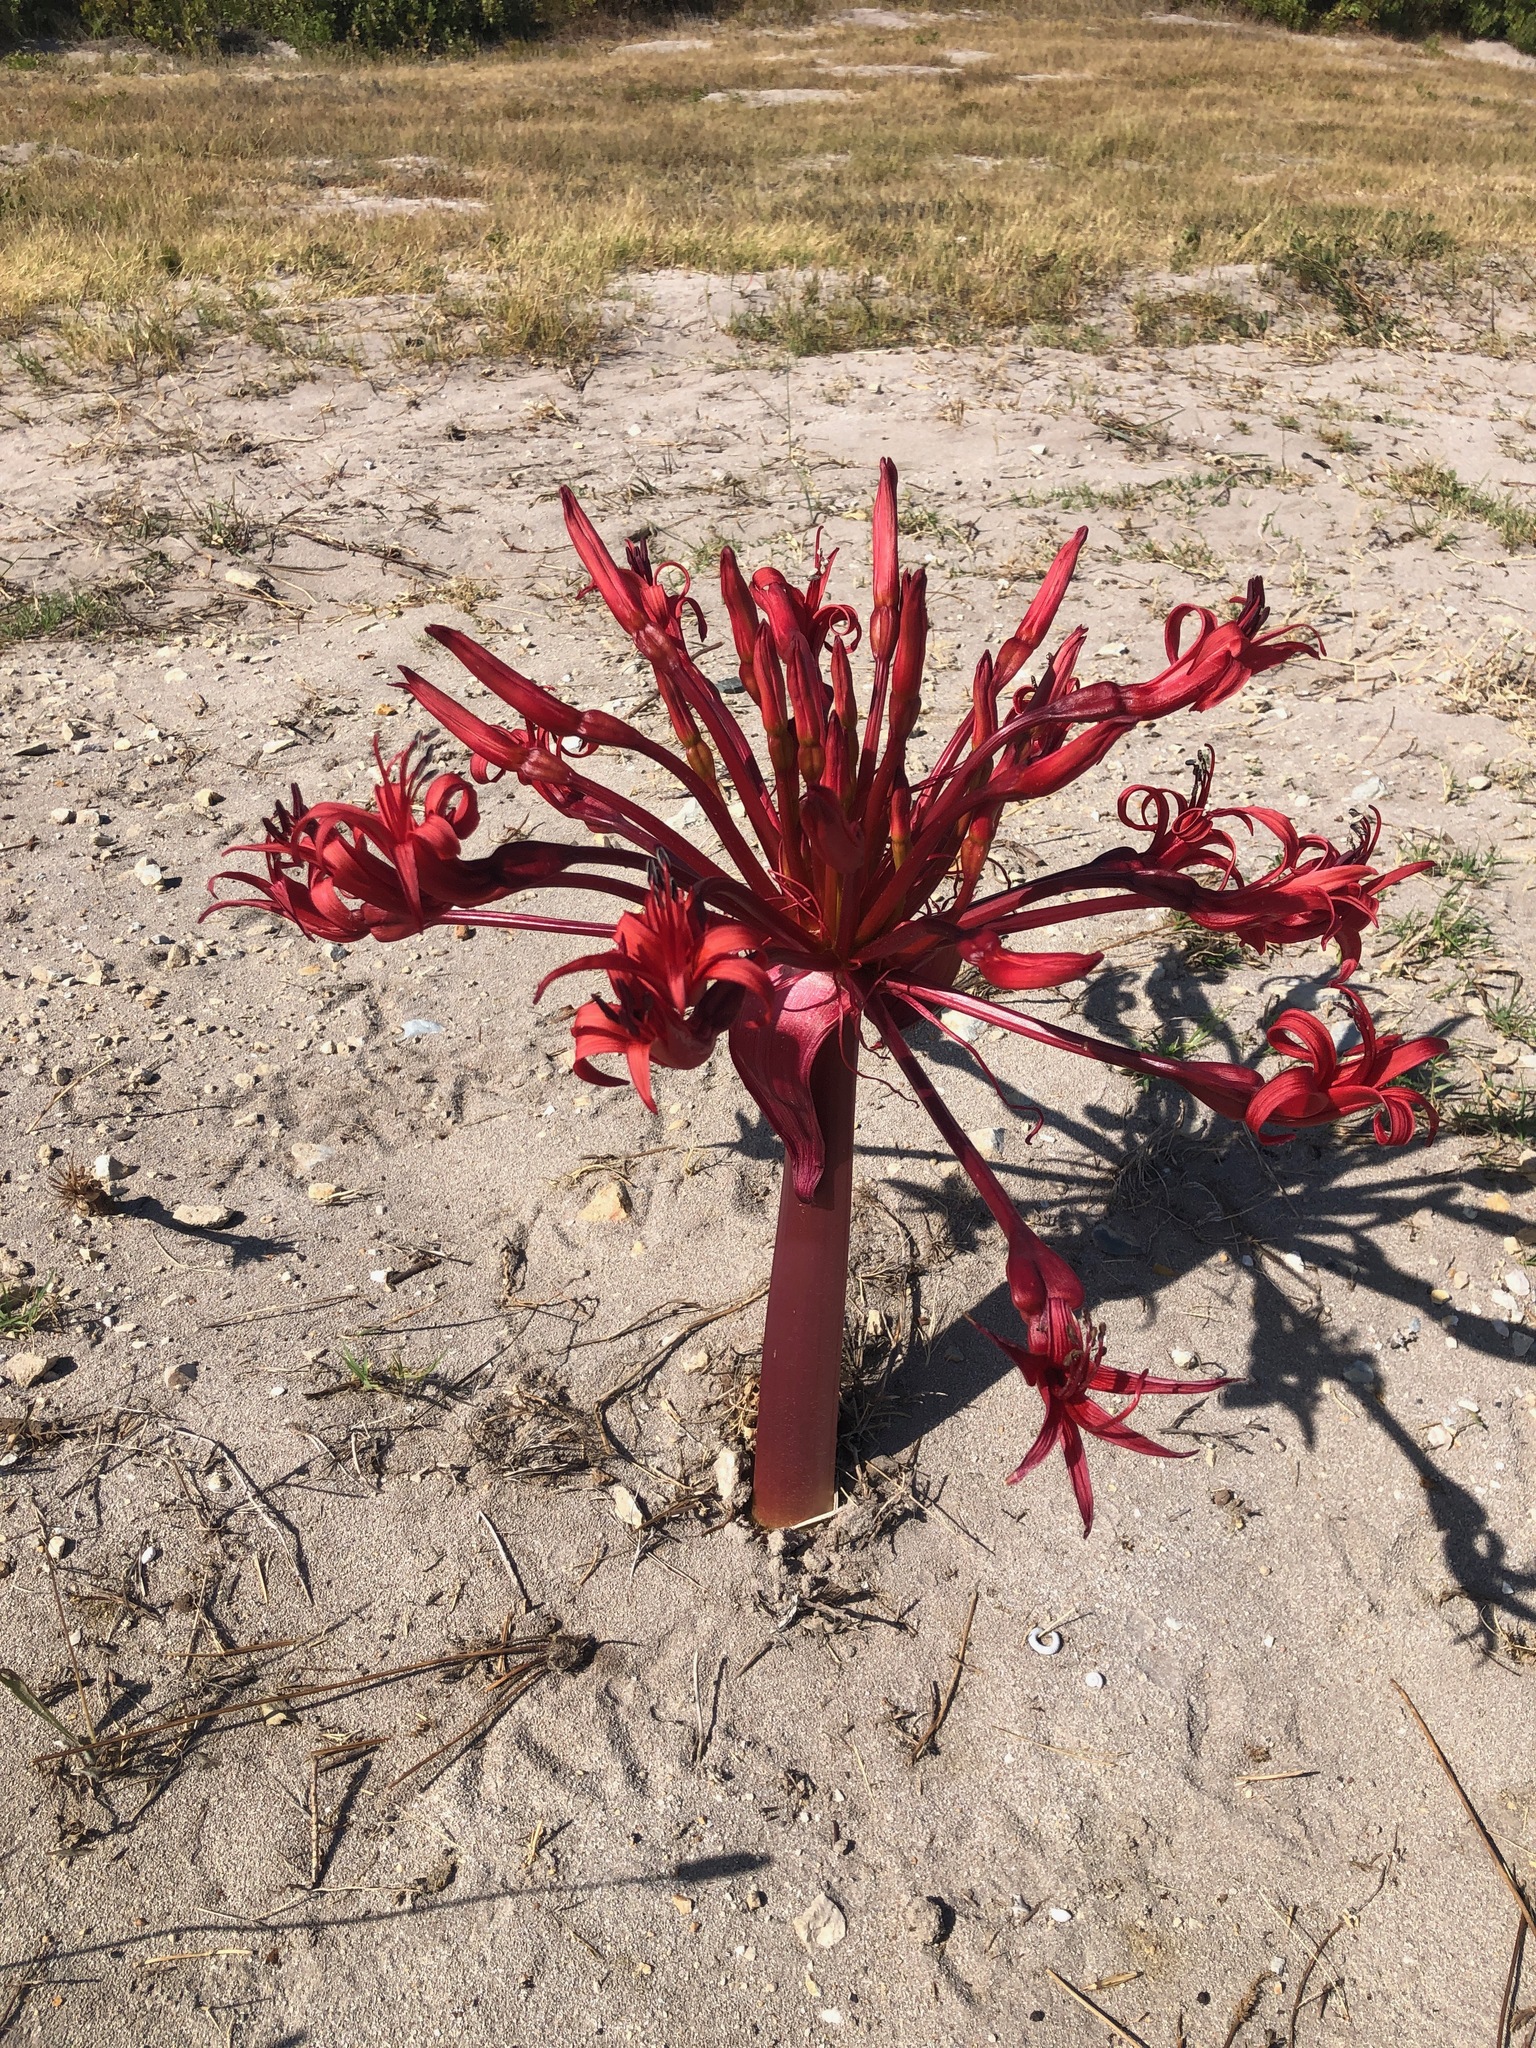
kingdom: Plantae
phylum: Tracheophyta
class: Liliopsida
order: Asparagales
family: Amaryllidaceae
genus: Brunsvigia
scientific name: Brunsvigia orientalis
